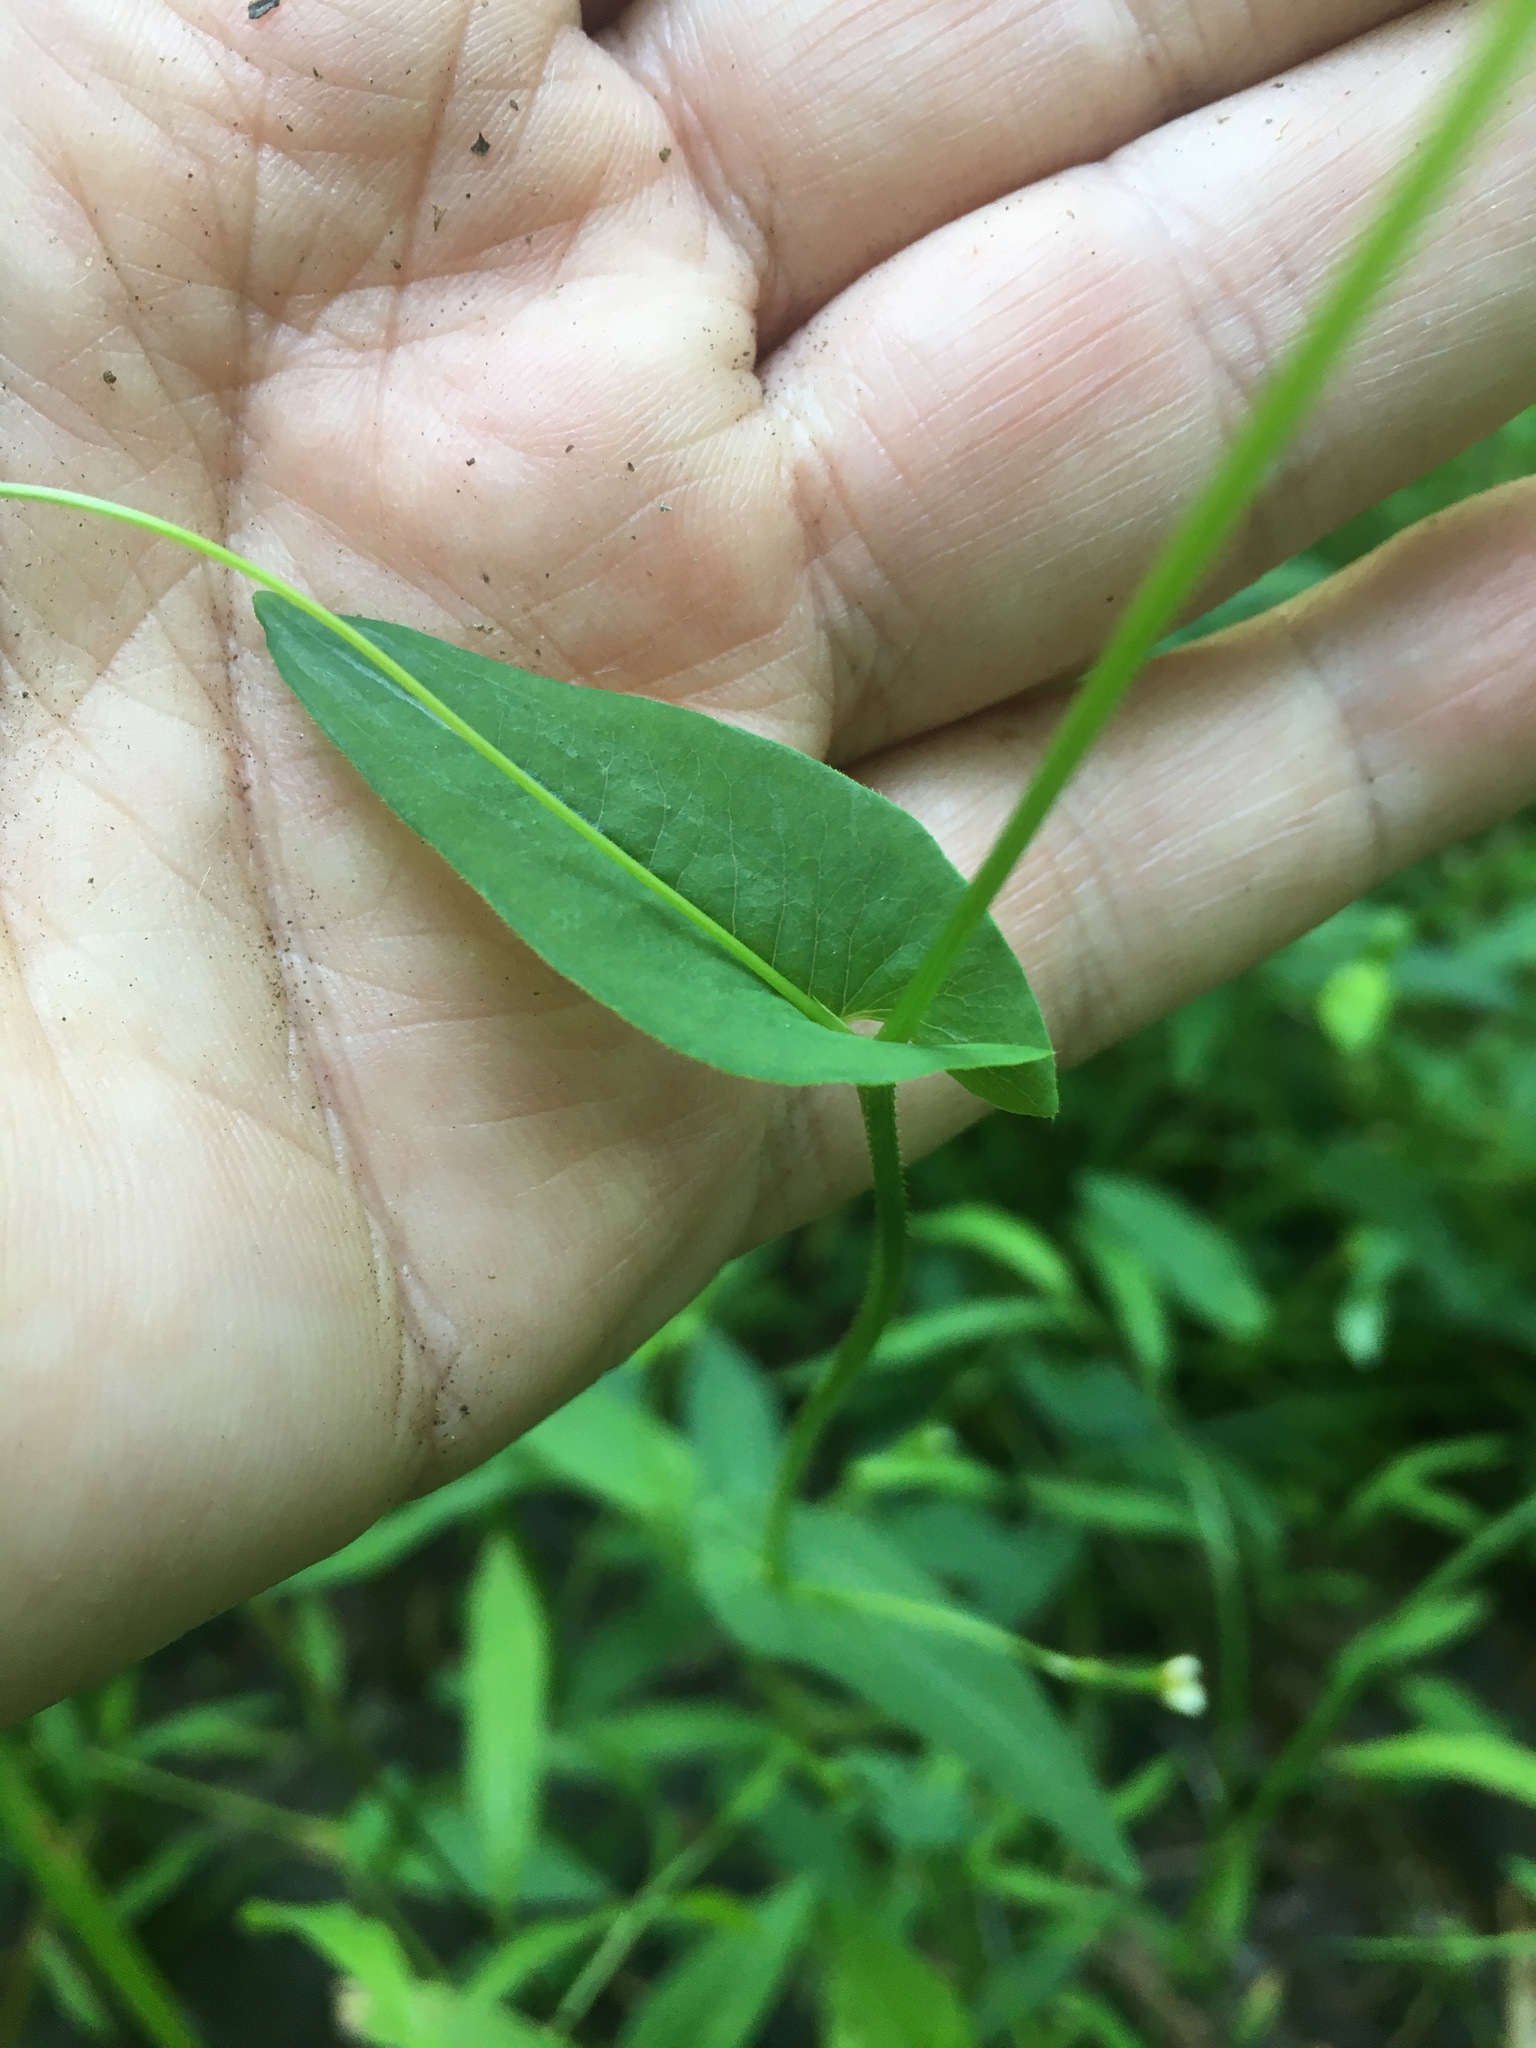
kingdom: Plantae
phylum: Tracheophyta
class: Magnoliopsida
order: Caryophyllales
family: Polygonaceae
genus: Persicaria
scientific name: Persicaria sagittata
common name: American tearthumb
